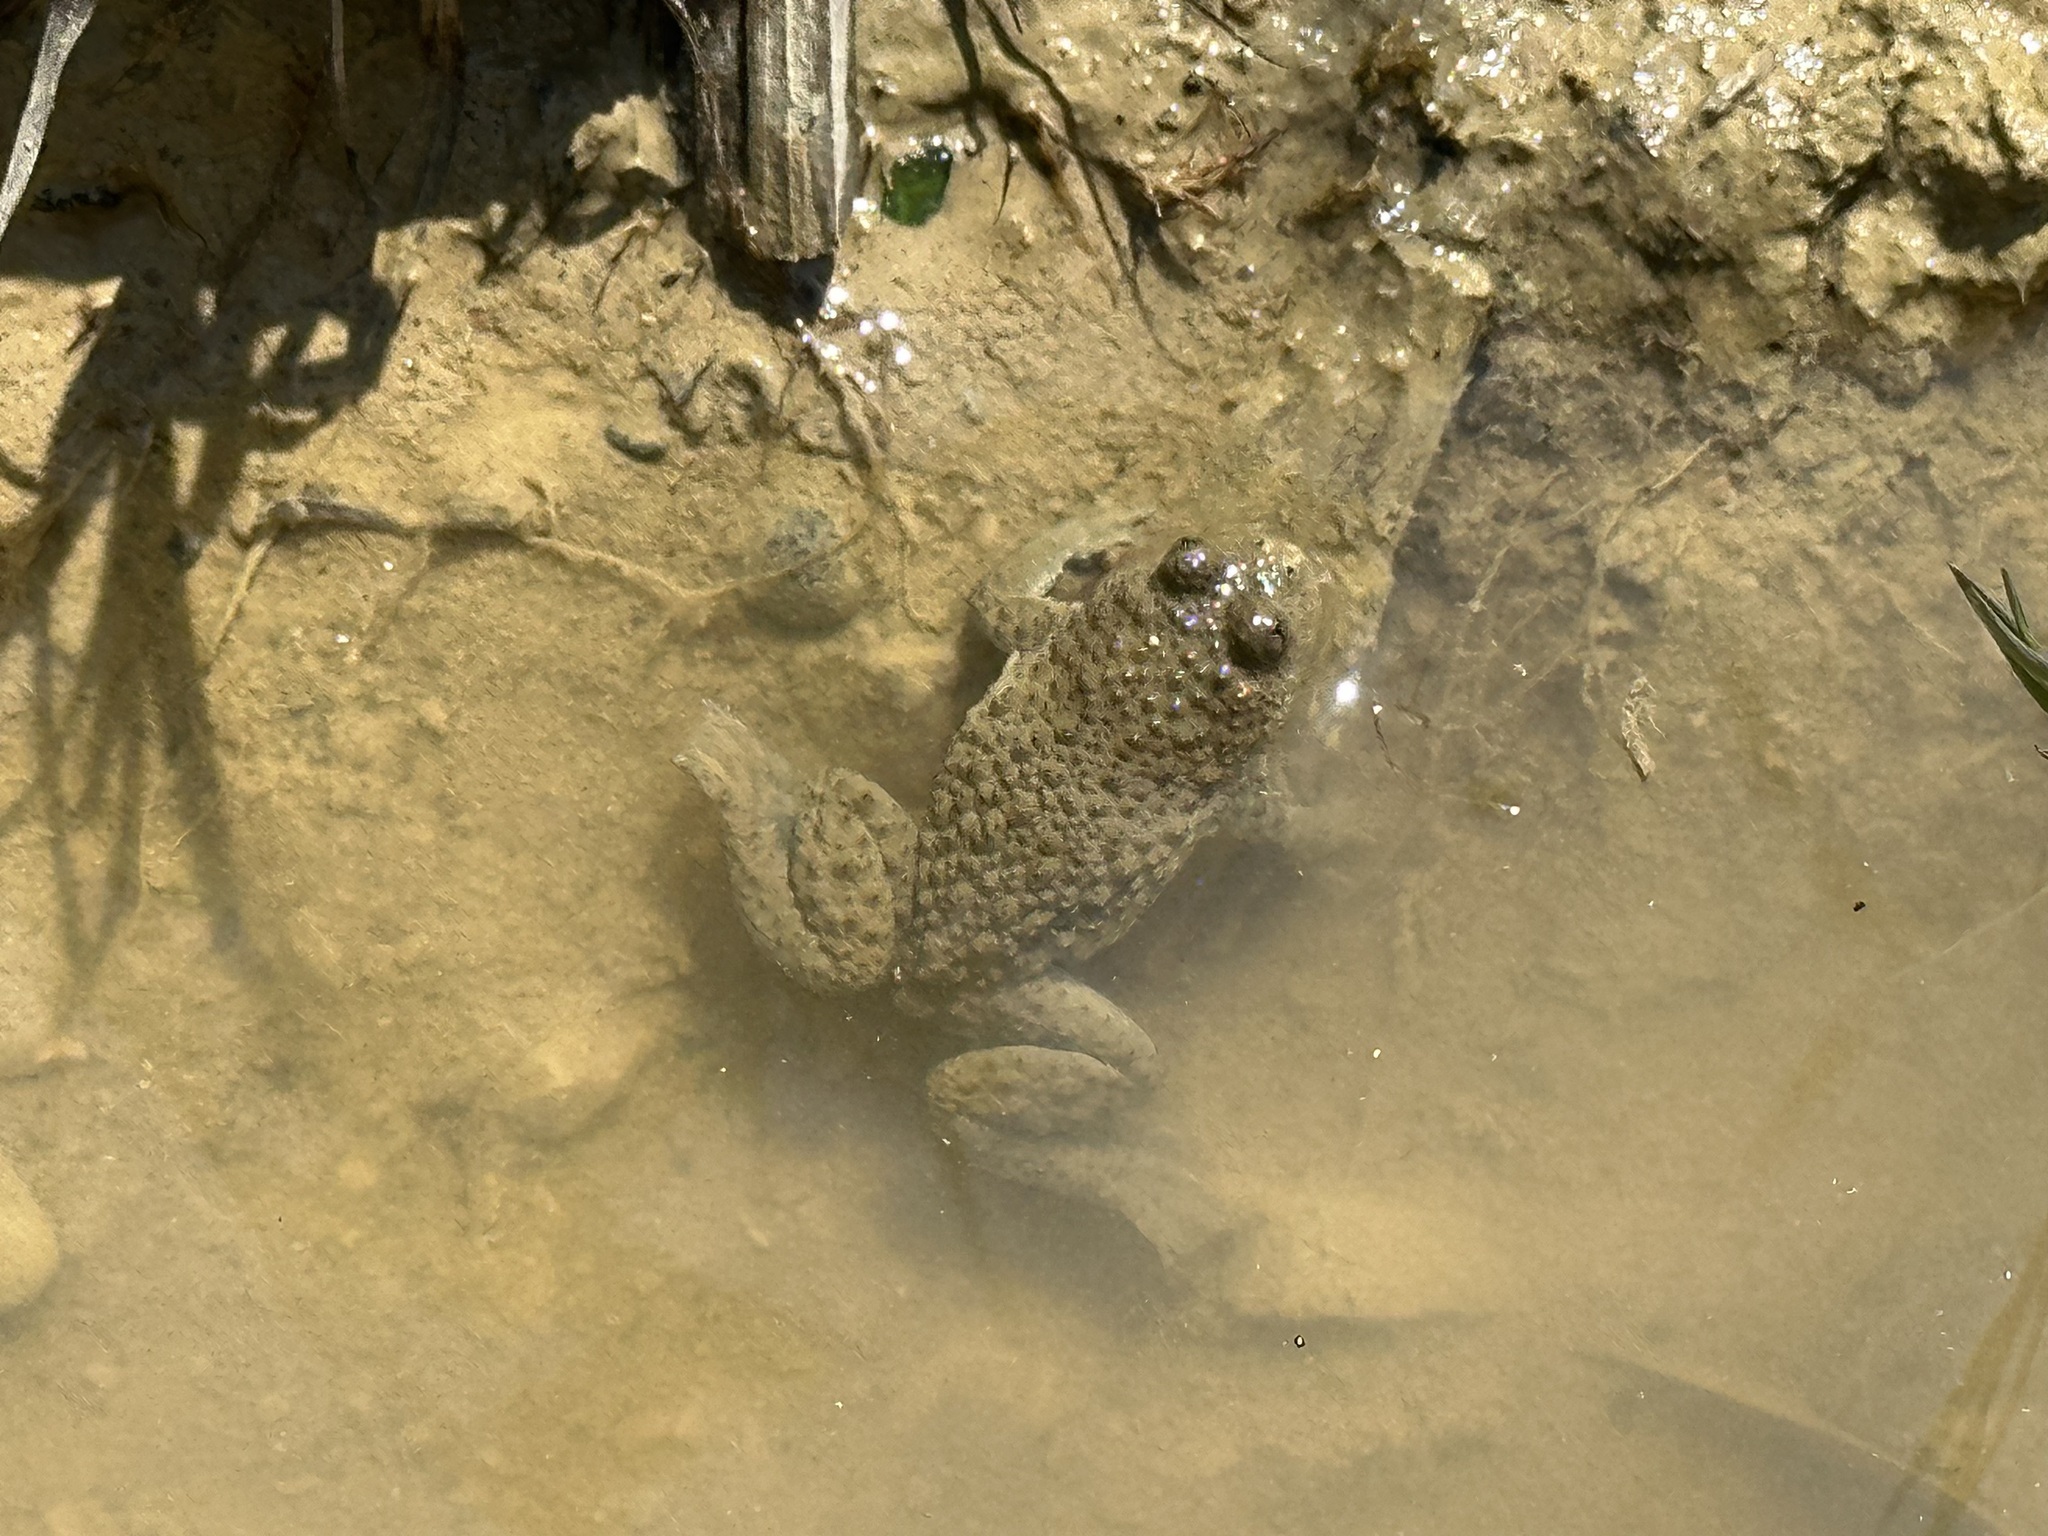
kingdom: Animalia
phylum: Chordata
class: Amphibia
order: Anura
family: Bombinatoridae
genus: Bombina
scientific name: Bombina variegata
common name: Yellow-bellied toad
